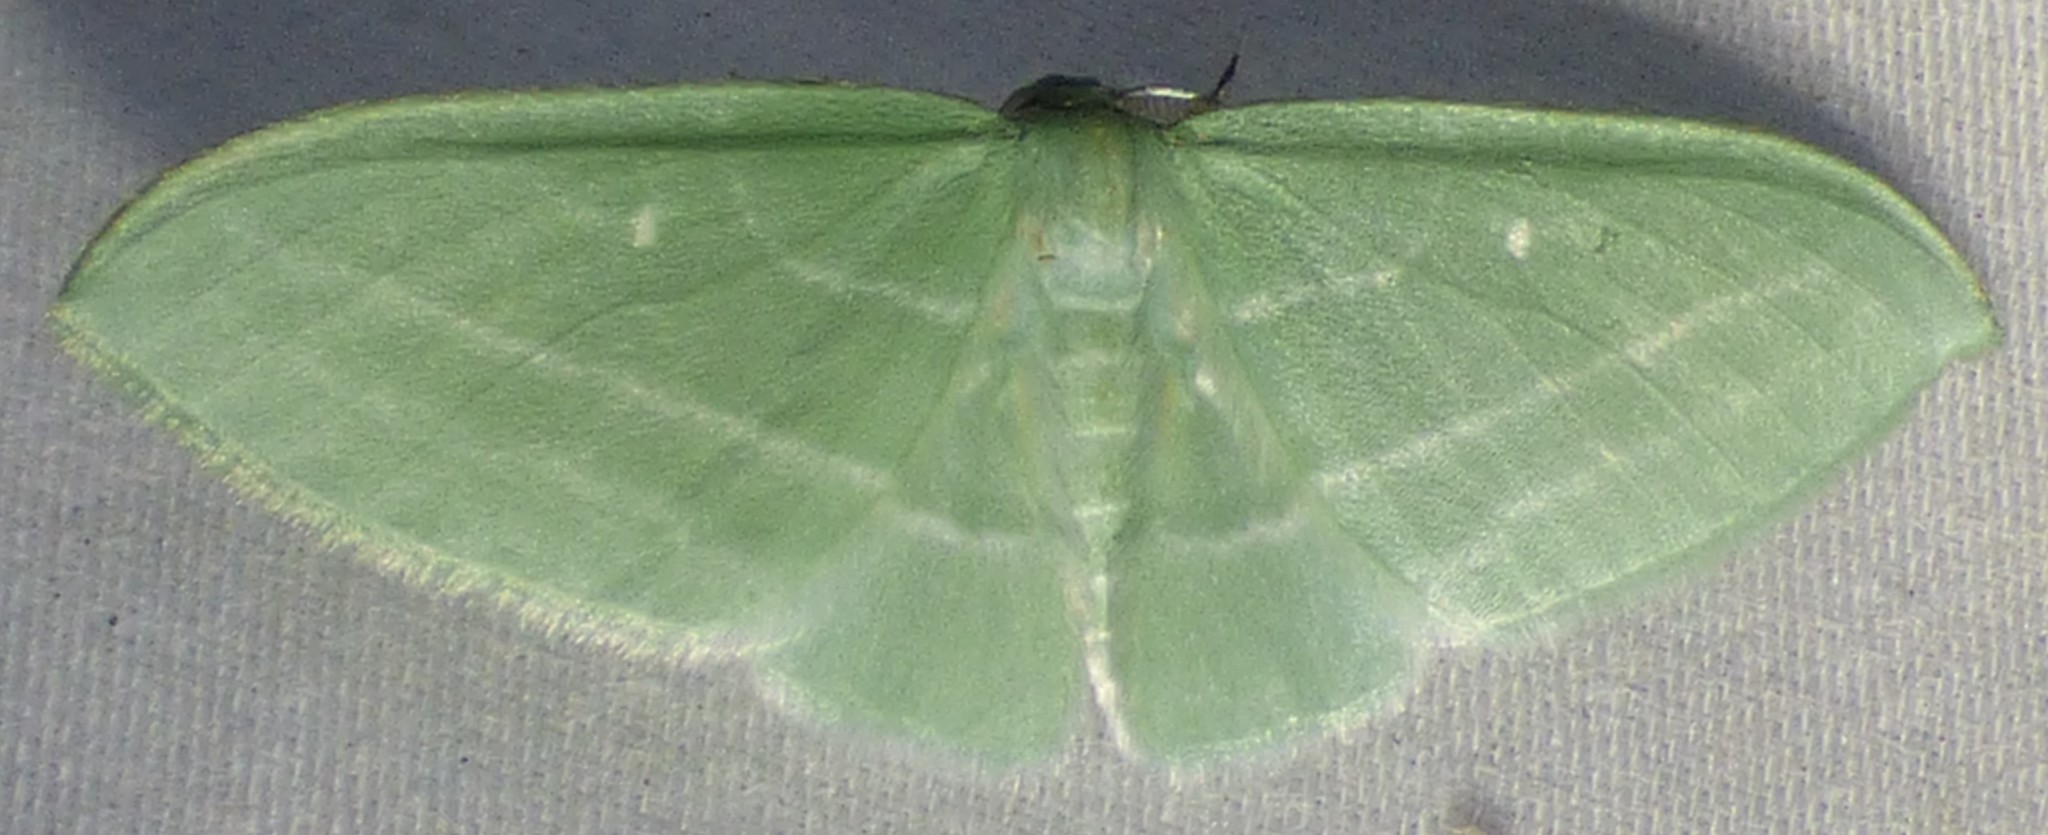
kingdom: Animalia
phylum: Arthropoda
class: Insecta
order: Lepidoptera
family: Geometridae
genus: Dyspteris
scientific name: Dyspteris abortivaria
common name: Bad-wing
